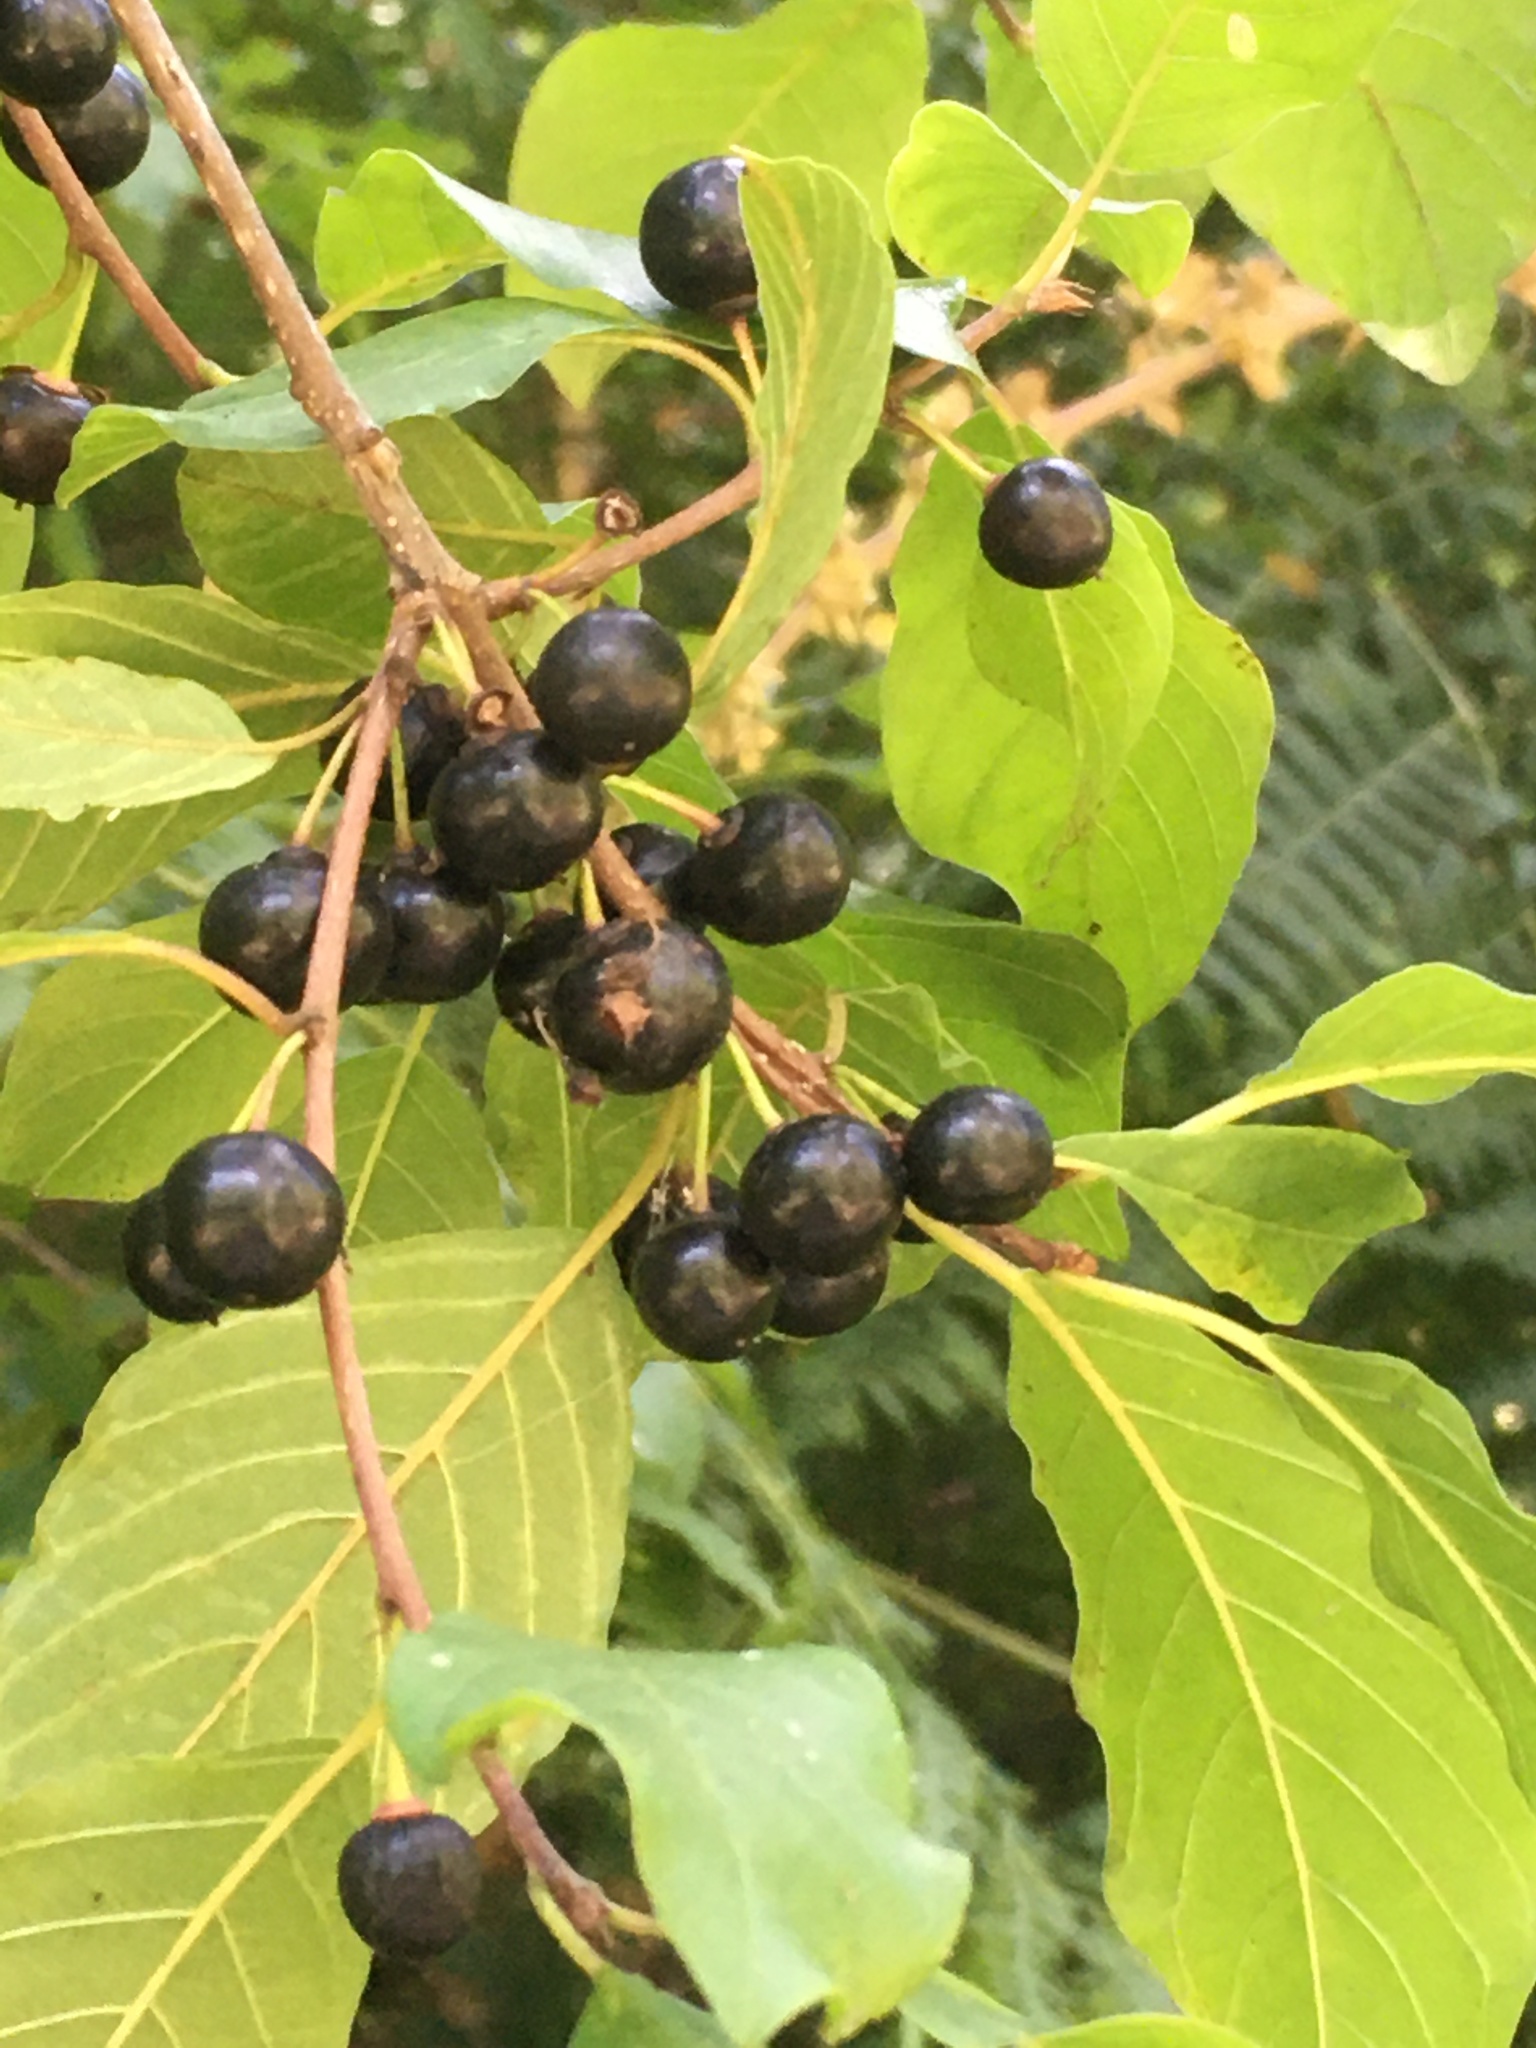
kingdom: Plantae
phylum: Tracheophyta
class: Magnoliopsida
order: Rosales
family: Rhamnaceae
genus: Frangula
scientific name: Frangula alnus
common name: Alder buckthorn
